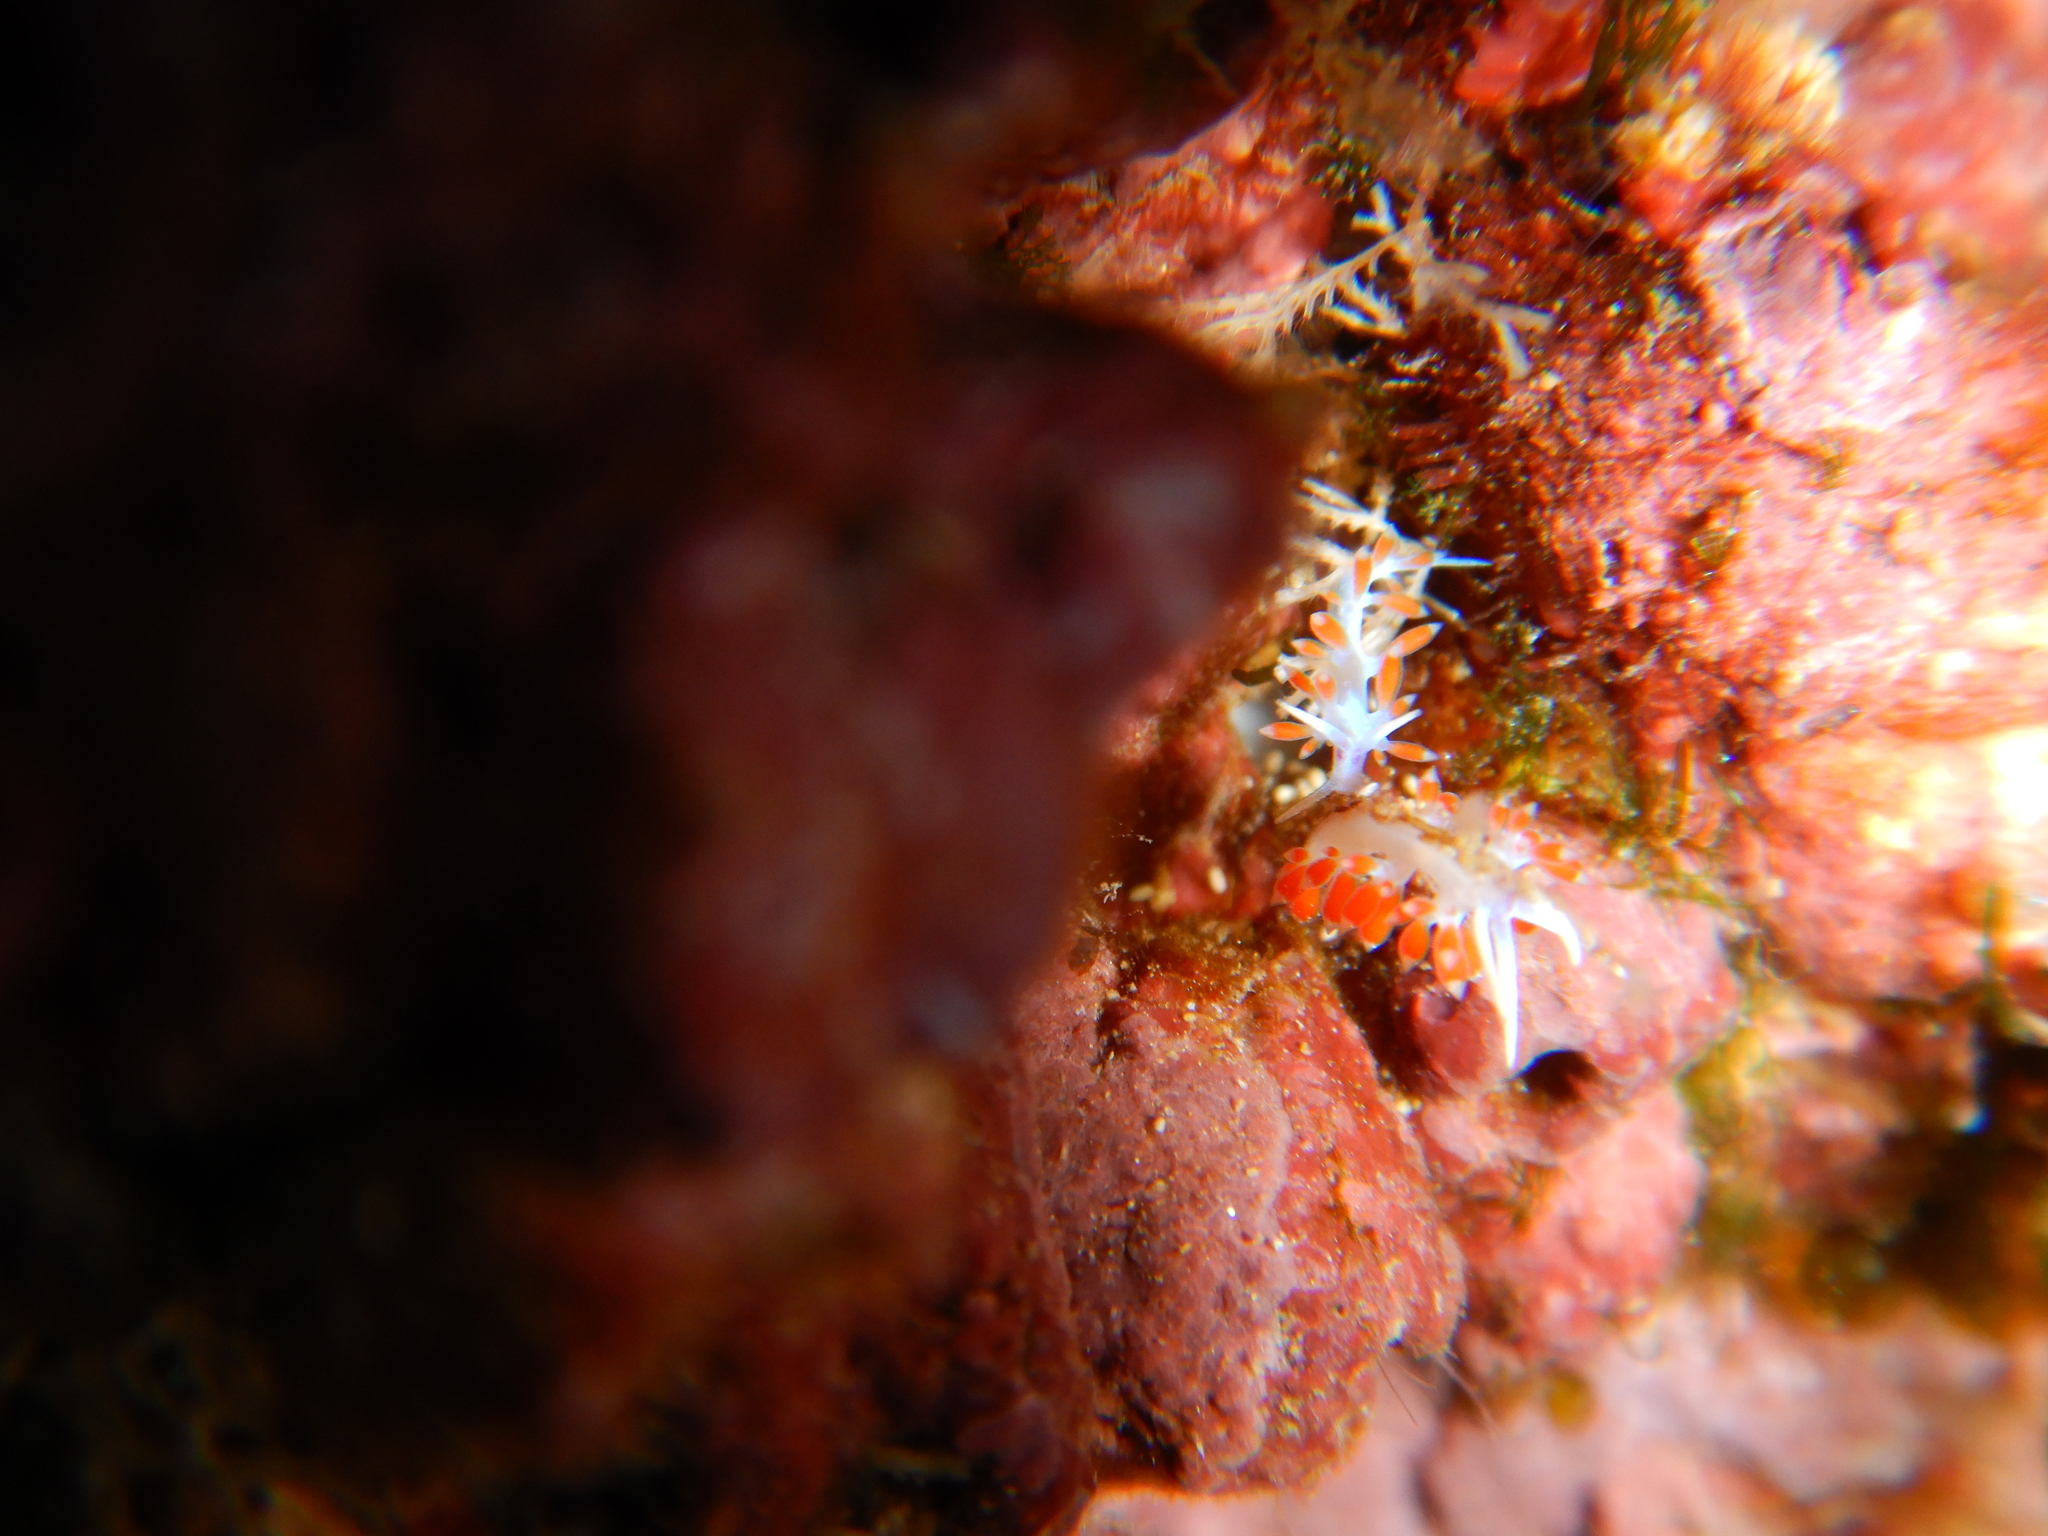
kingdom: Animalia
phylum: Mollusca
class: Gastropoda
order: Nudibranchia
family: Flabellinidae
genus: Calmella
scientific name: Calmella cavolini
